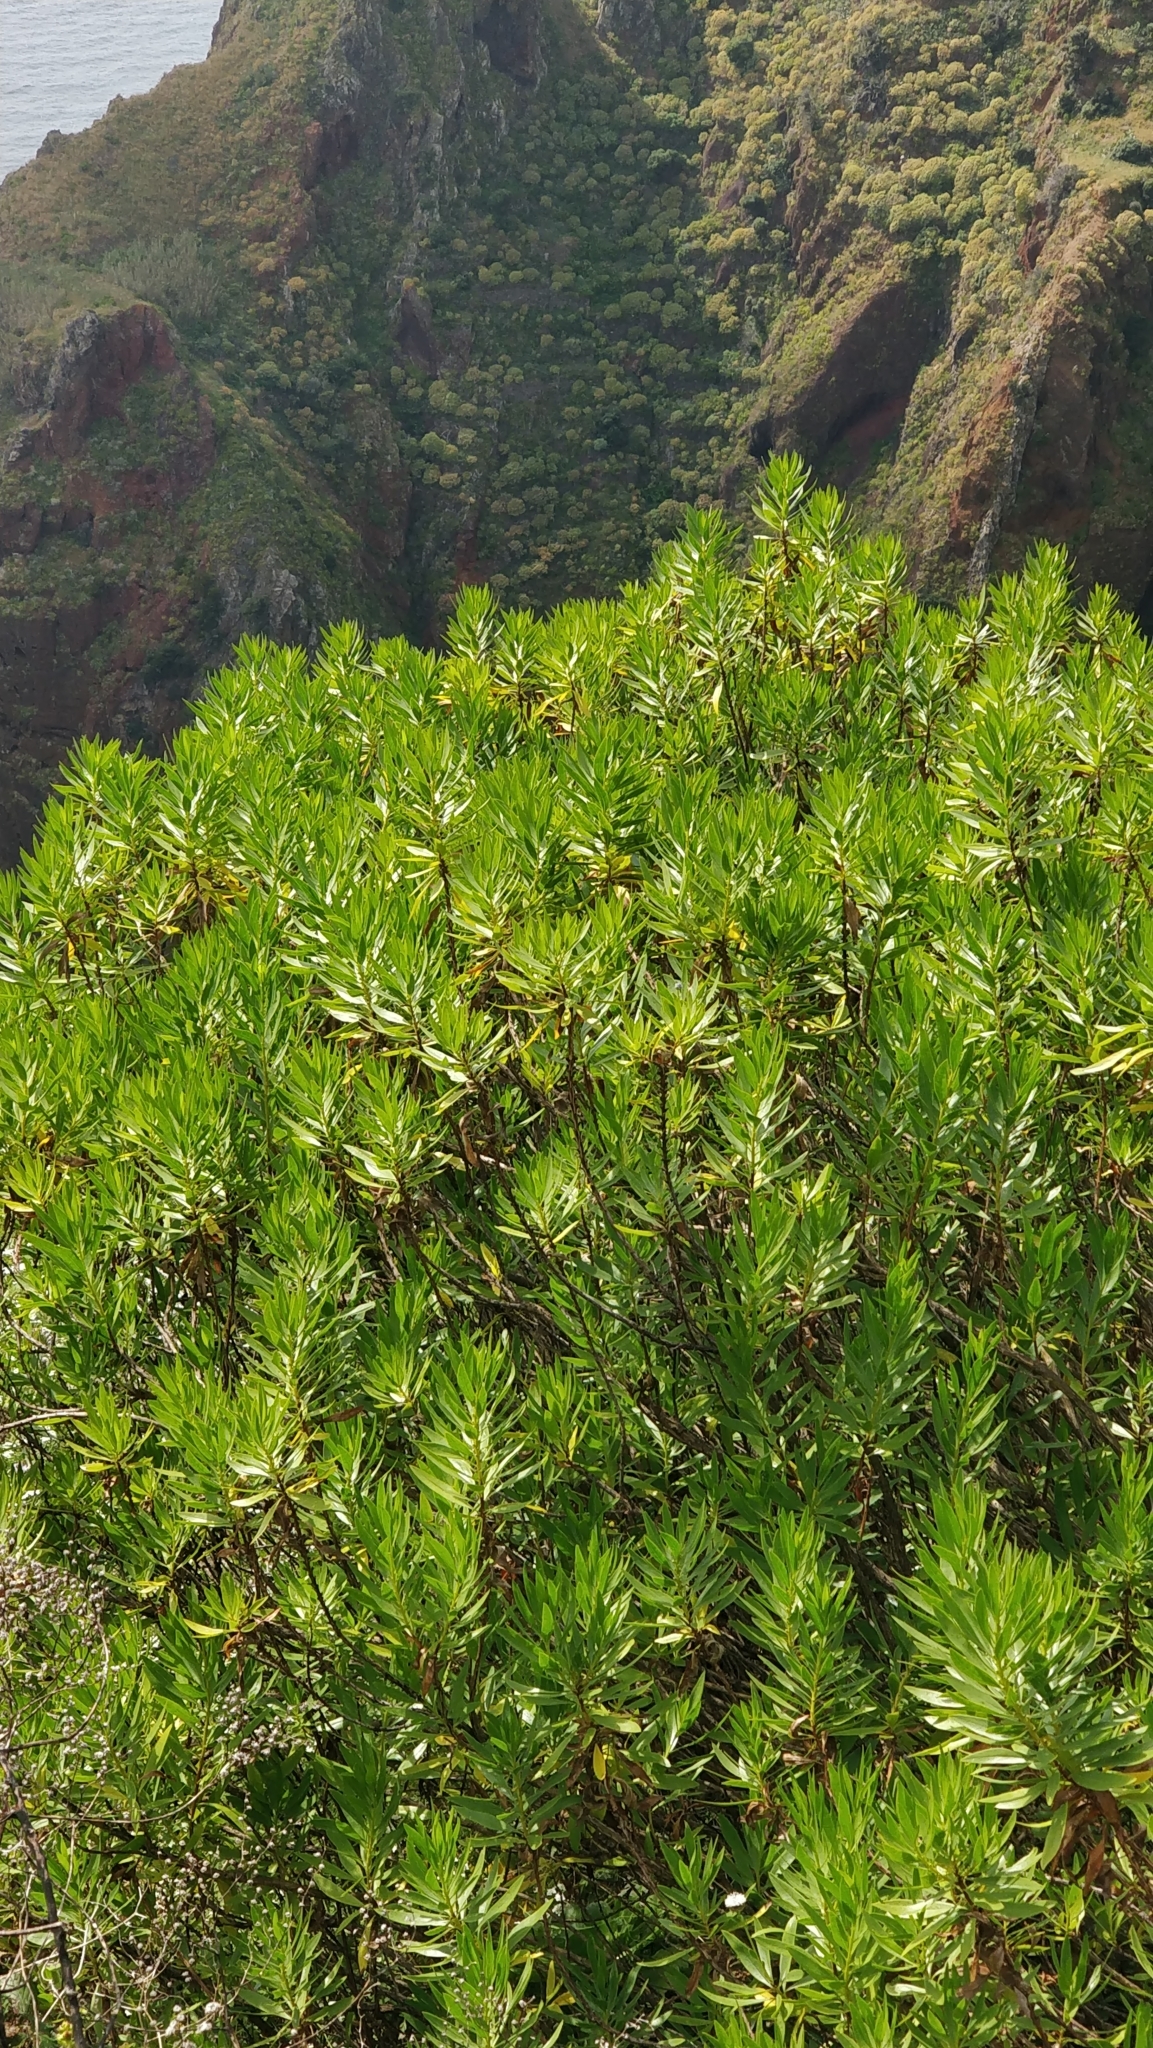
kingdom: Plantae
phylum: Tracheophyta
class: Magnoliopsida
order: Lamiales
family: Plantaginaceae
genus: Globularia
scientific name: Globularia salicina
